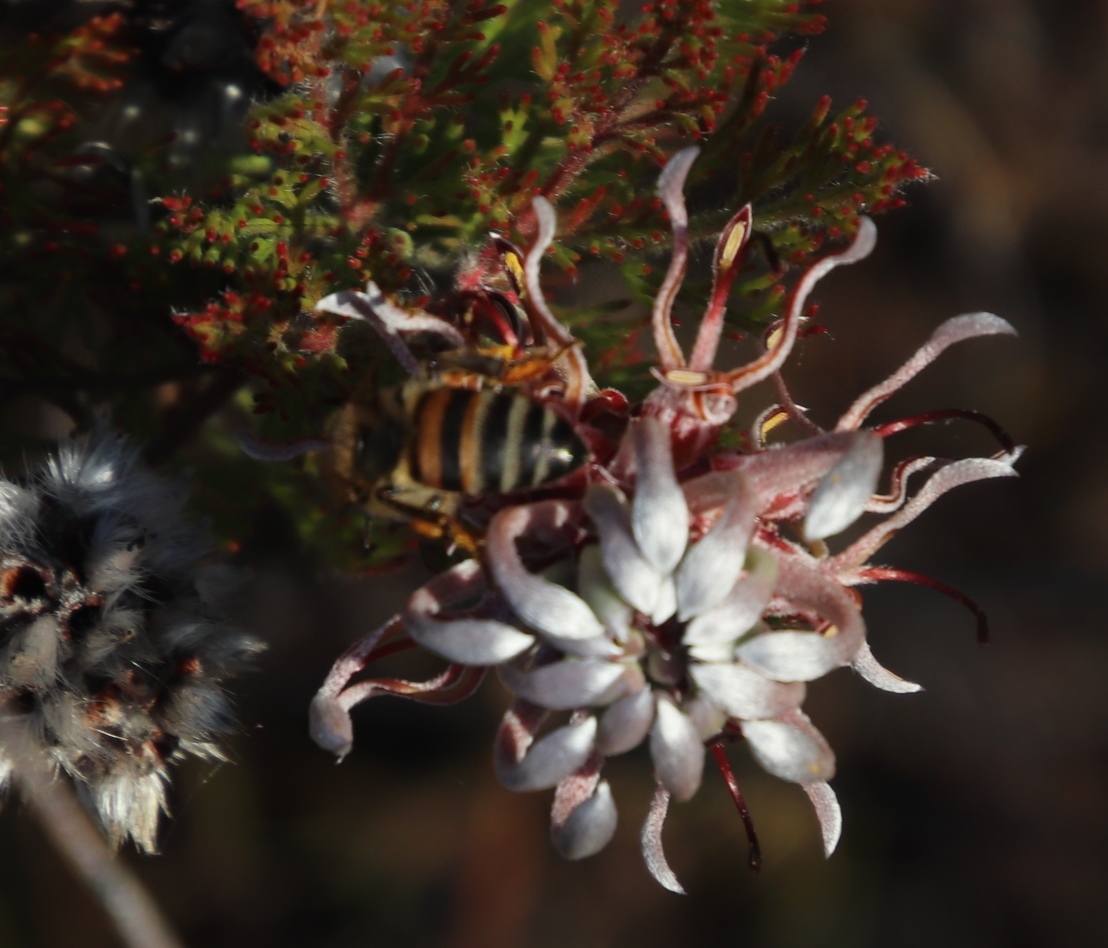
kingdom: Plantae
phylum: Tracheophyta
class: Magnoliopsida
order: Proteales
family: Proteaceae
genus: Serruria
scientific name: Serruria pedunculata
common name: Fan-leaf spiderhead
